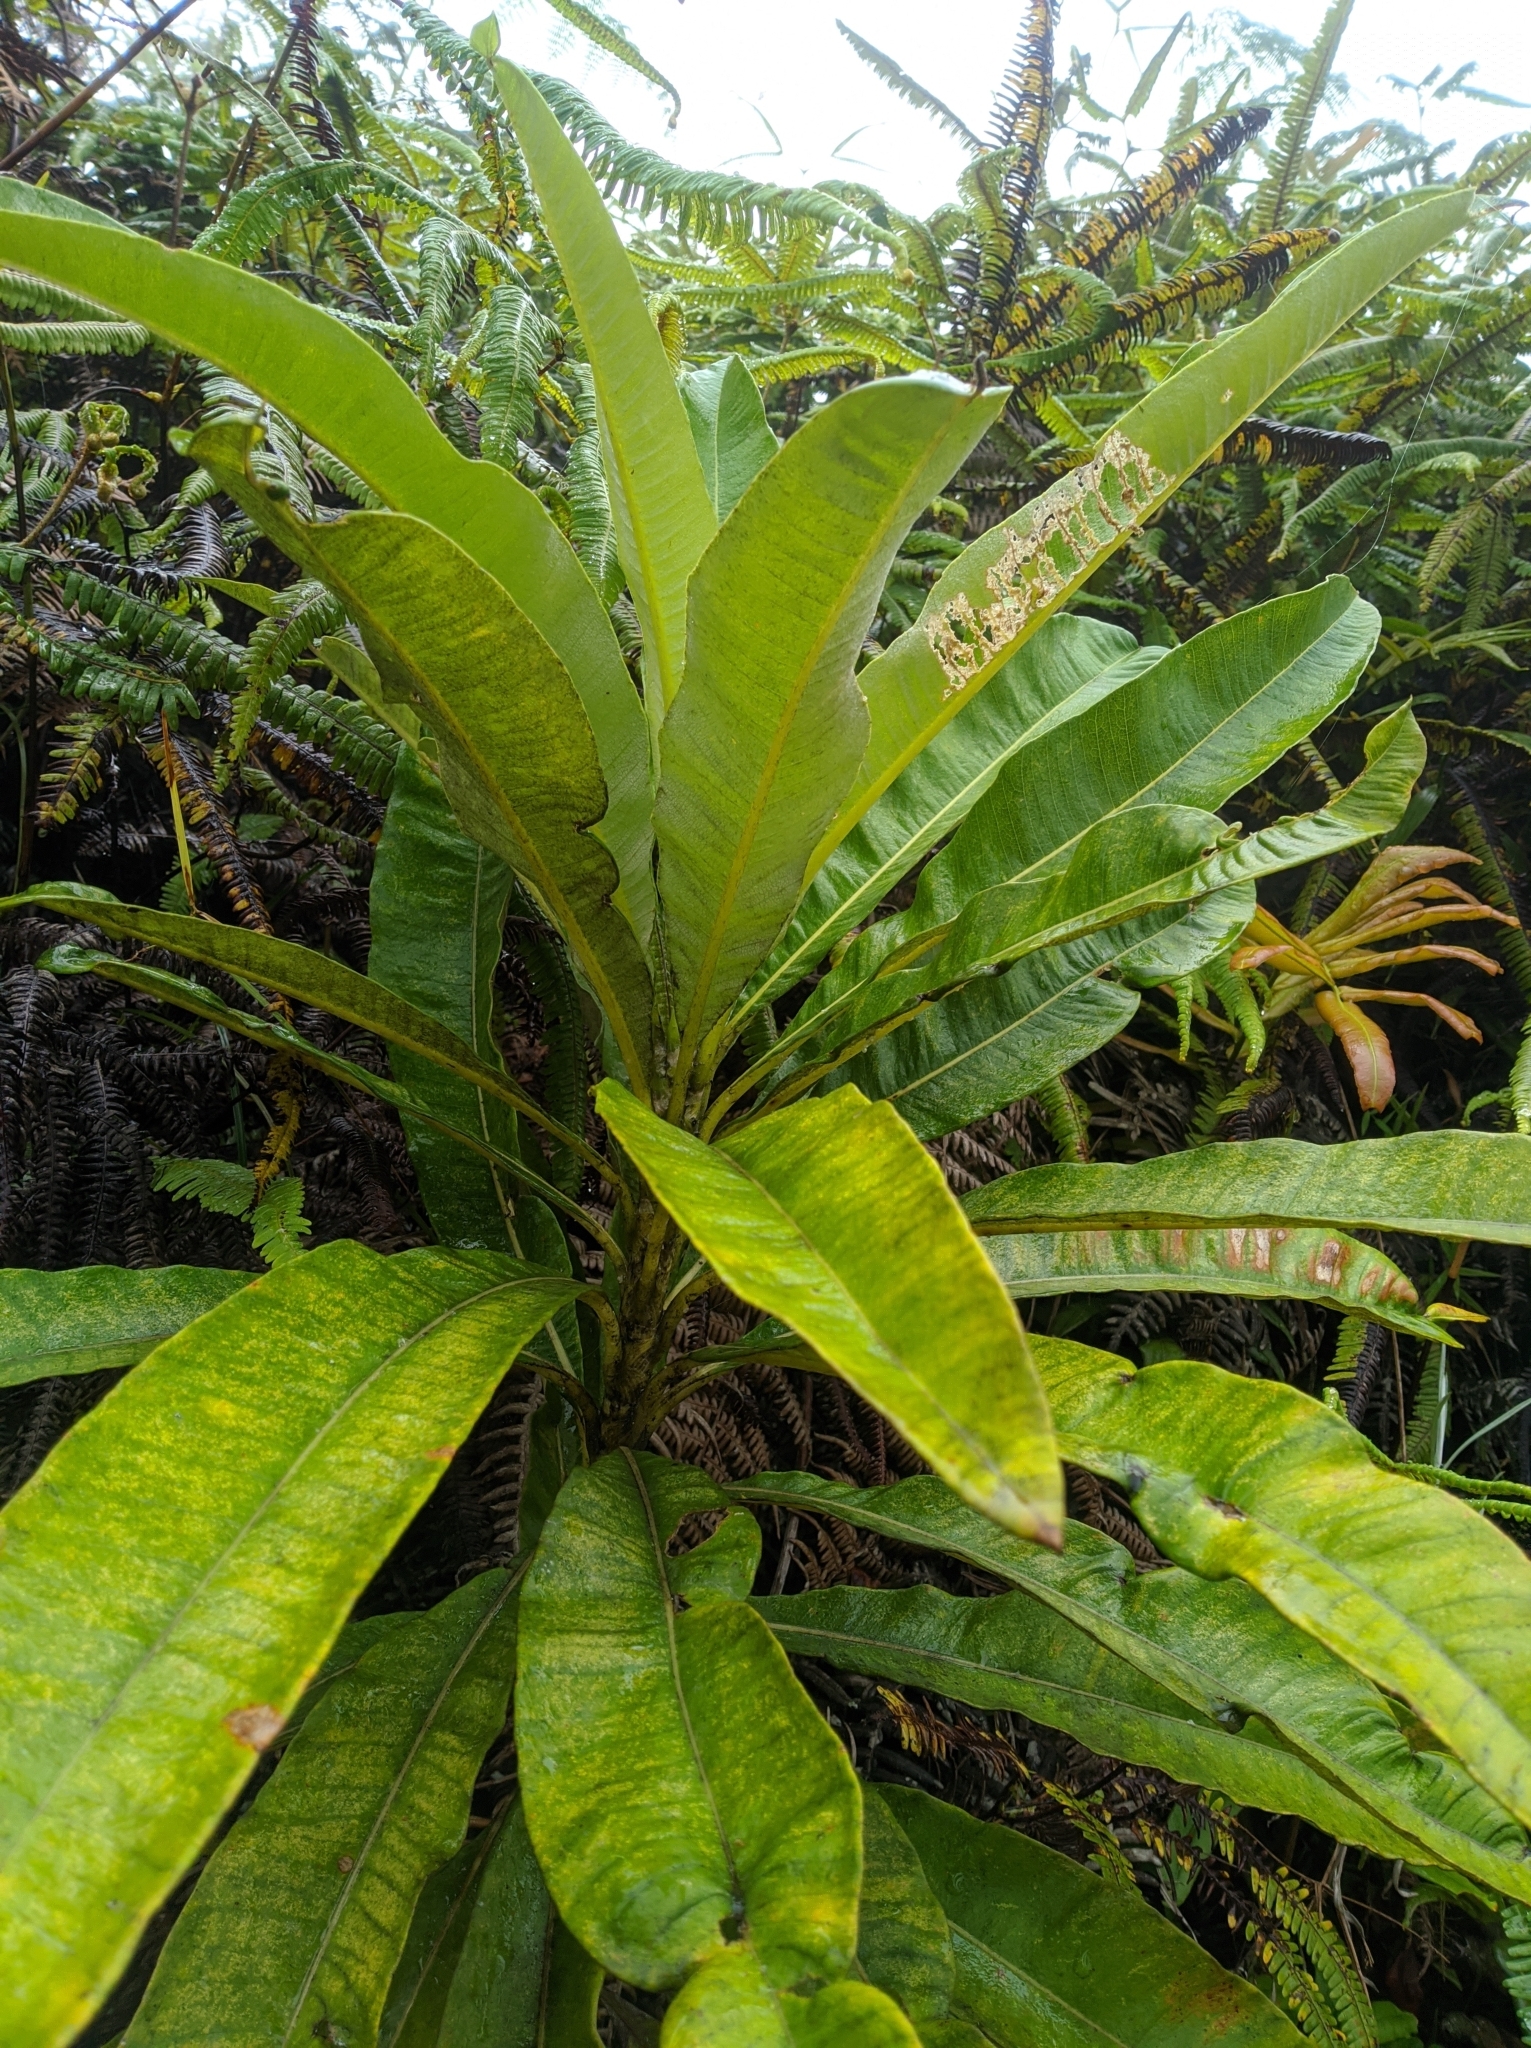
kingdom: Plantae
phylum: Tracheophyta
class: Magnoliopsida
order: Asterales
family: Asteraceae
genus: Espeletia
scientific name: Espeletia neriifolia
